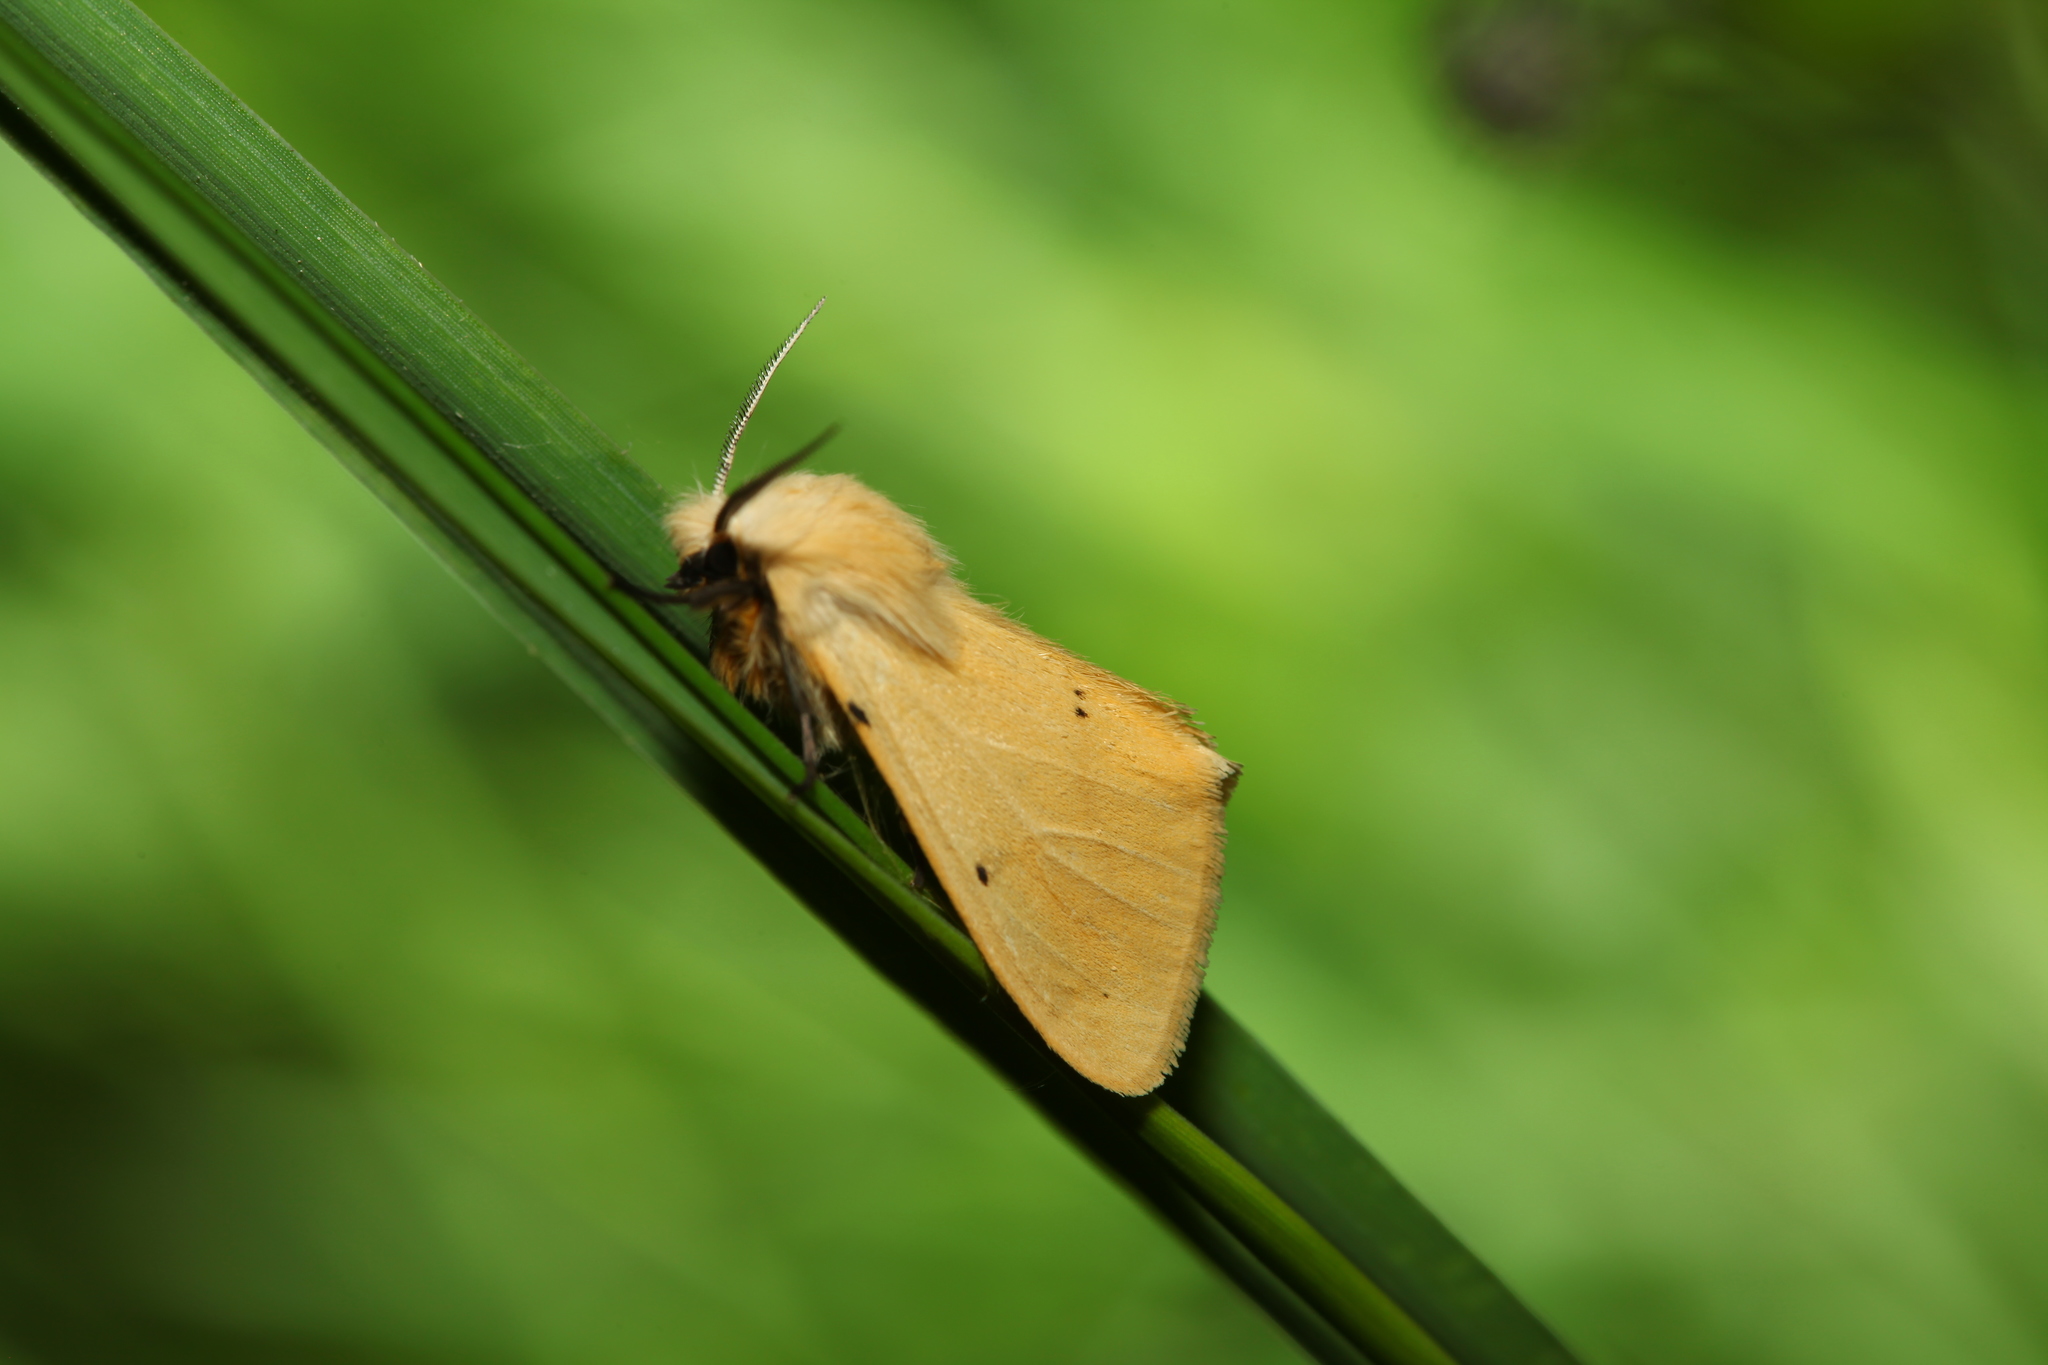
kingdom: Animalia
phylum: Arthropoda
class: Insecta
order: Lepidoptera
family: Erebidae
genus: Spilarctia
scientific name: Spilarctia lutea
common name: Buff ermine
